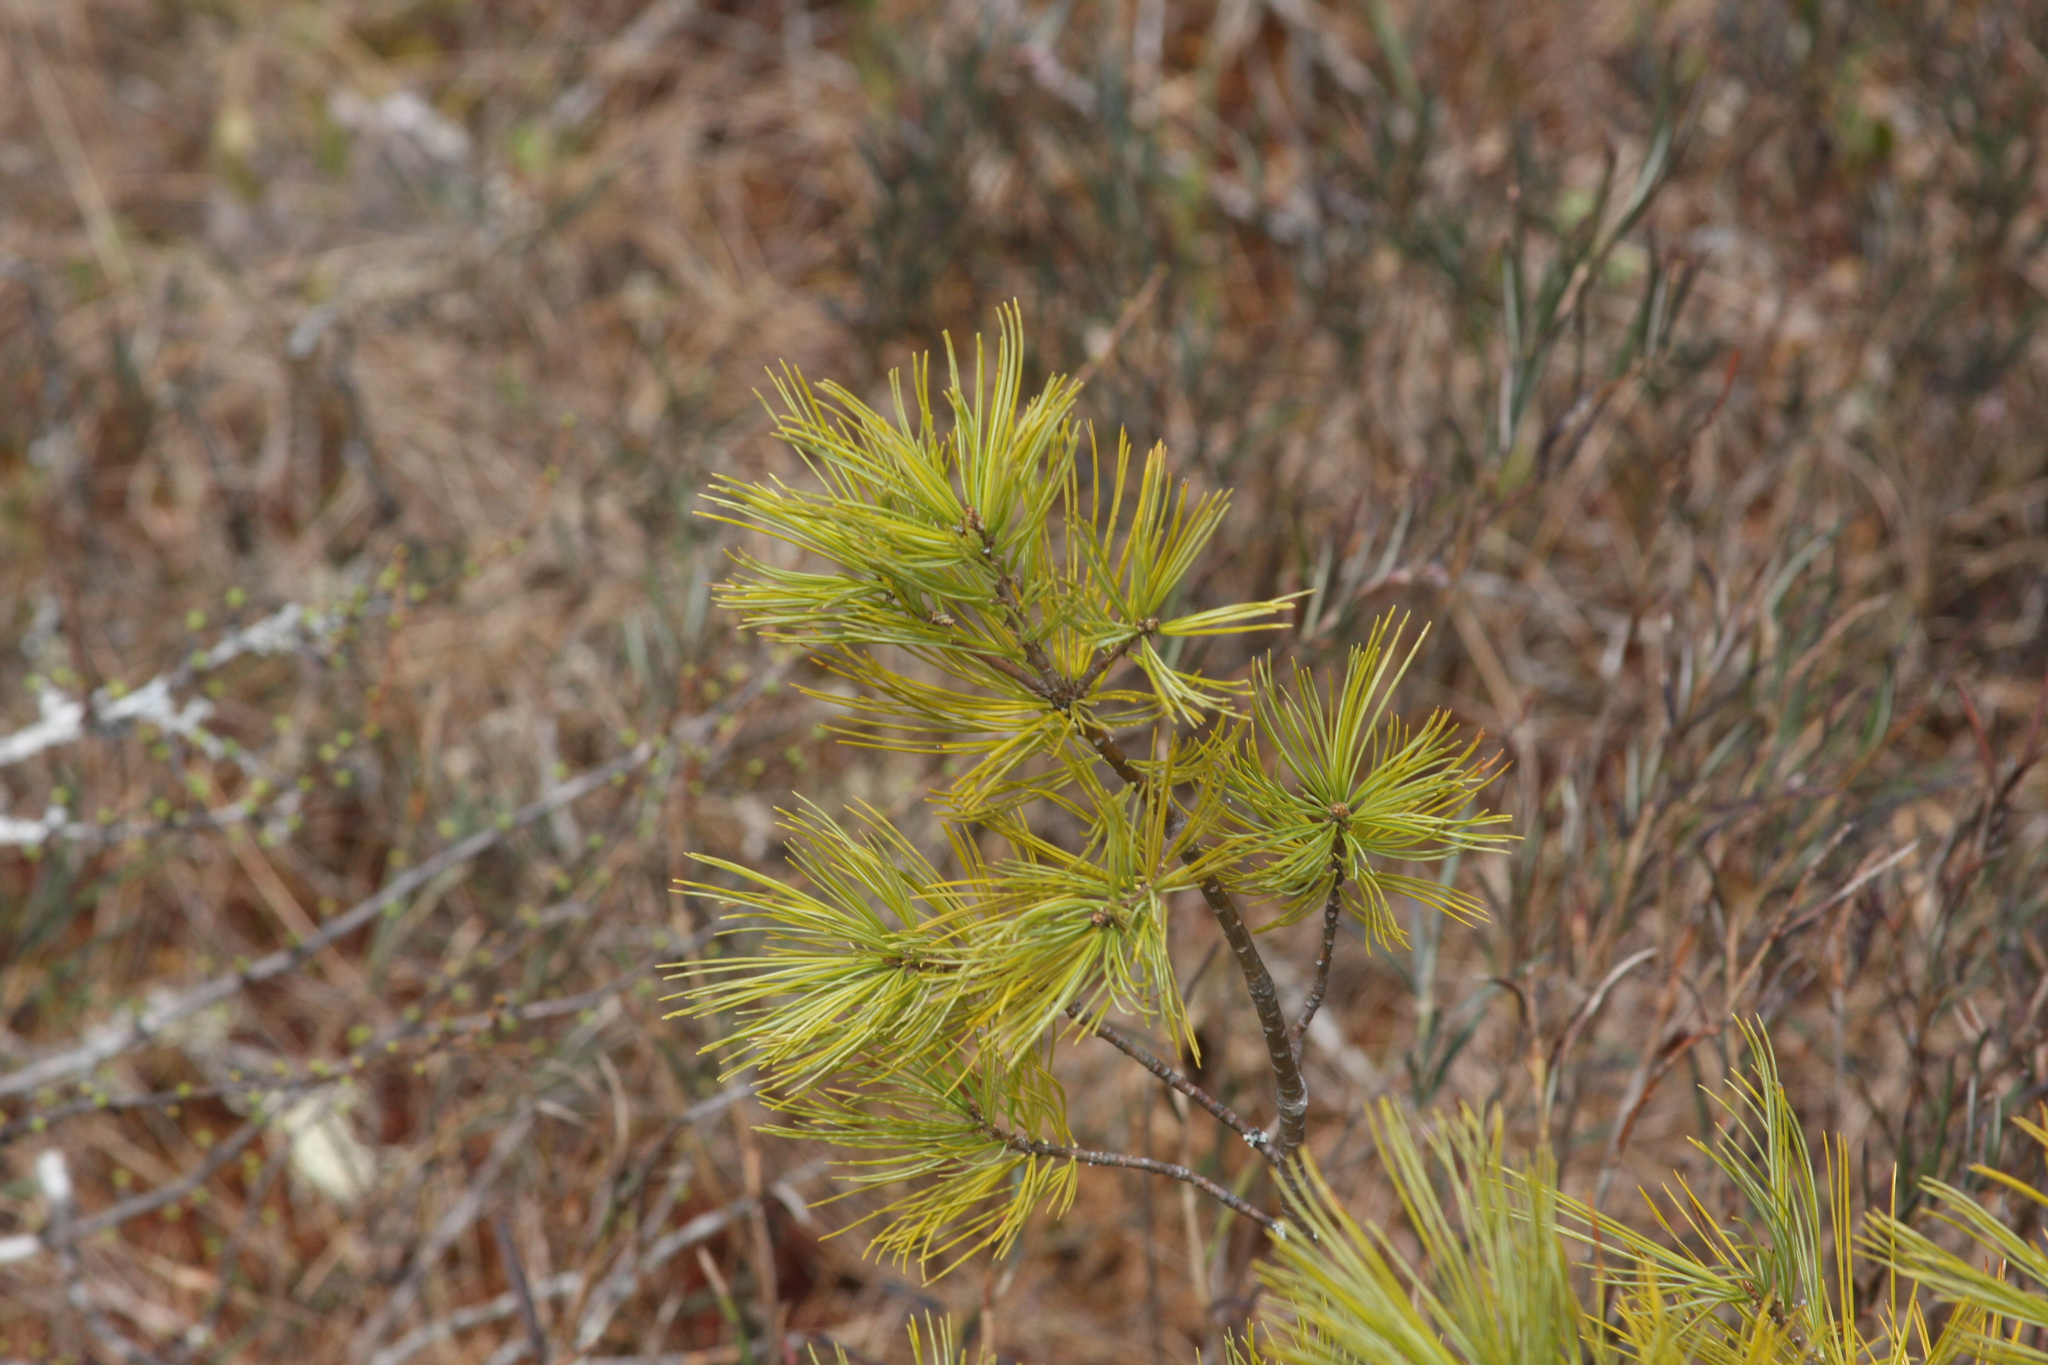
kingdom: Plantae
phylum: Tracheophyta
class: Pinopsida
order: Pinales
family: Pinaceae
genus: Pinus
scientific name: Pinus strobus
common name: Weymouth pine
